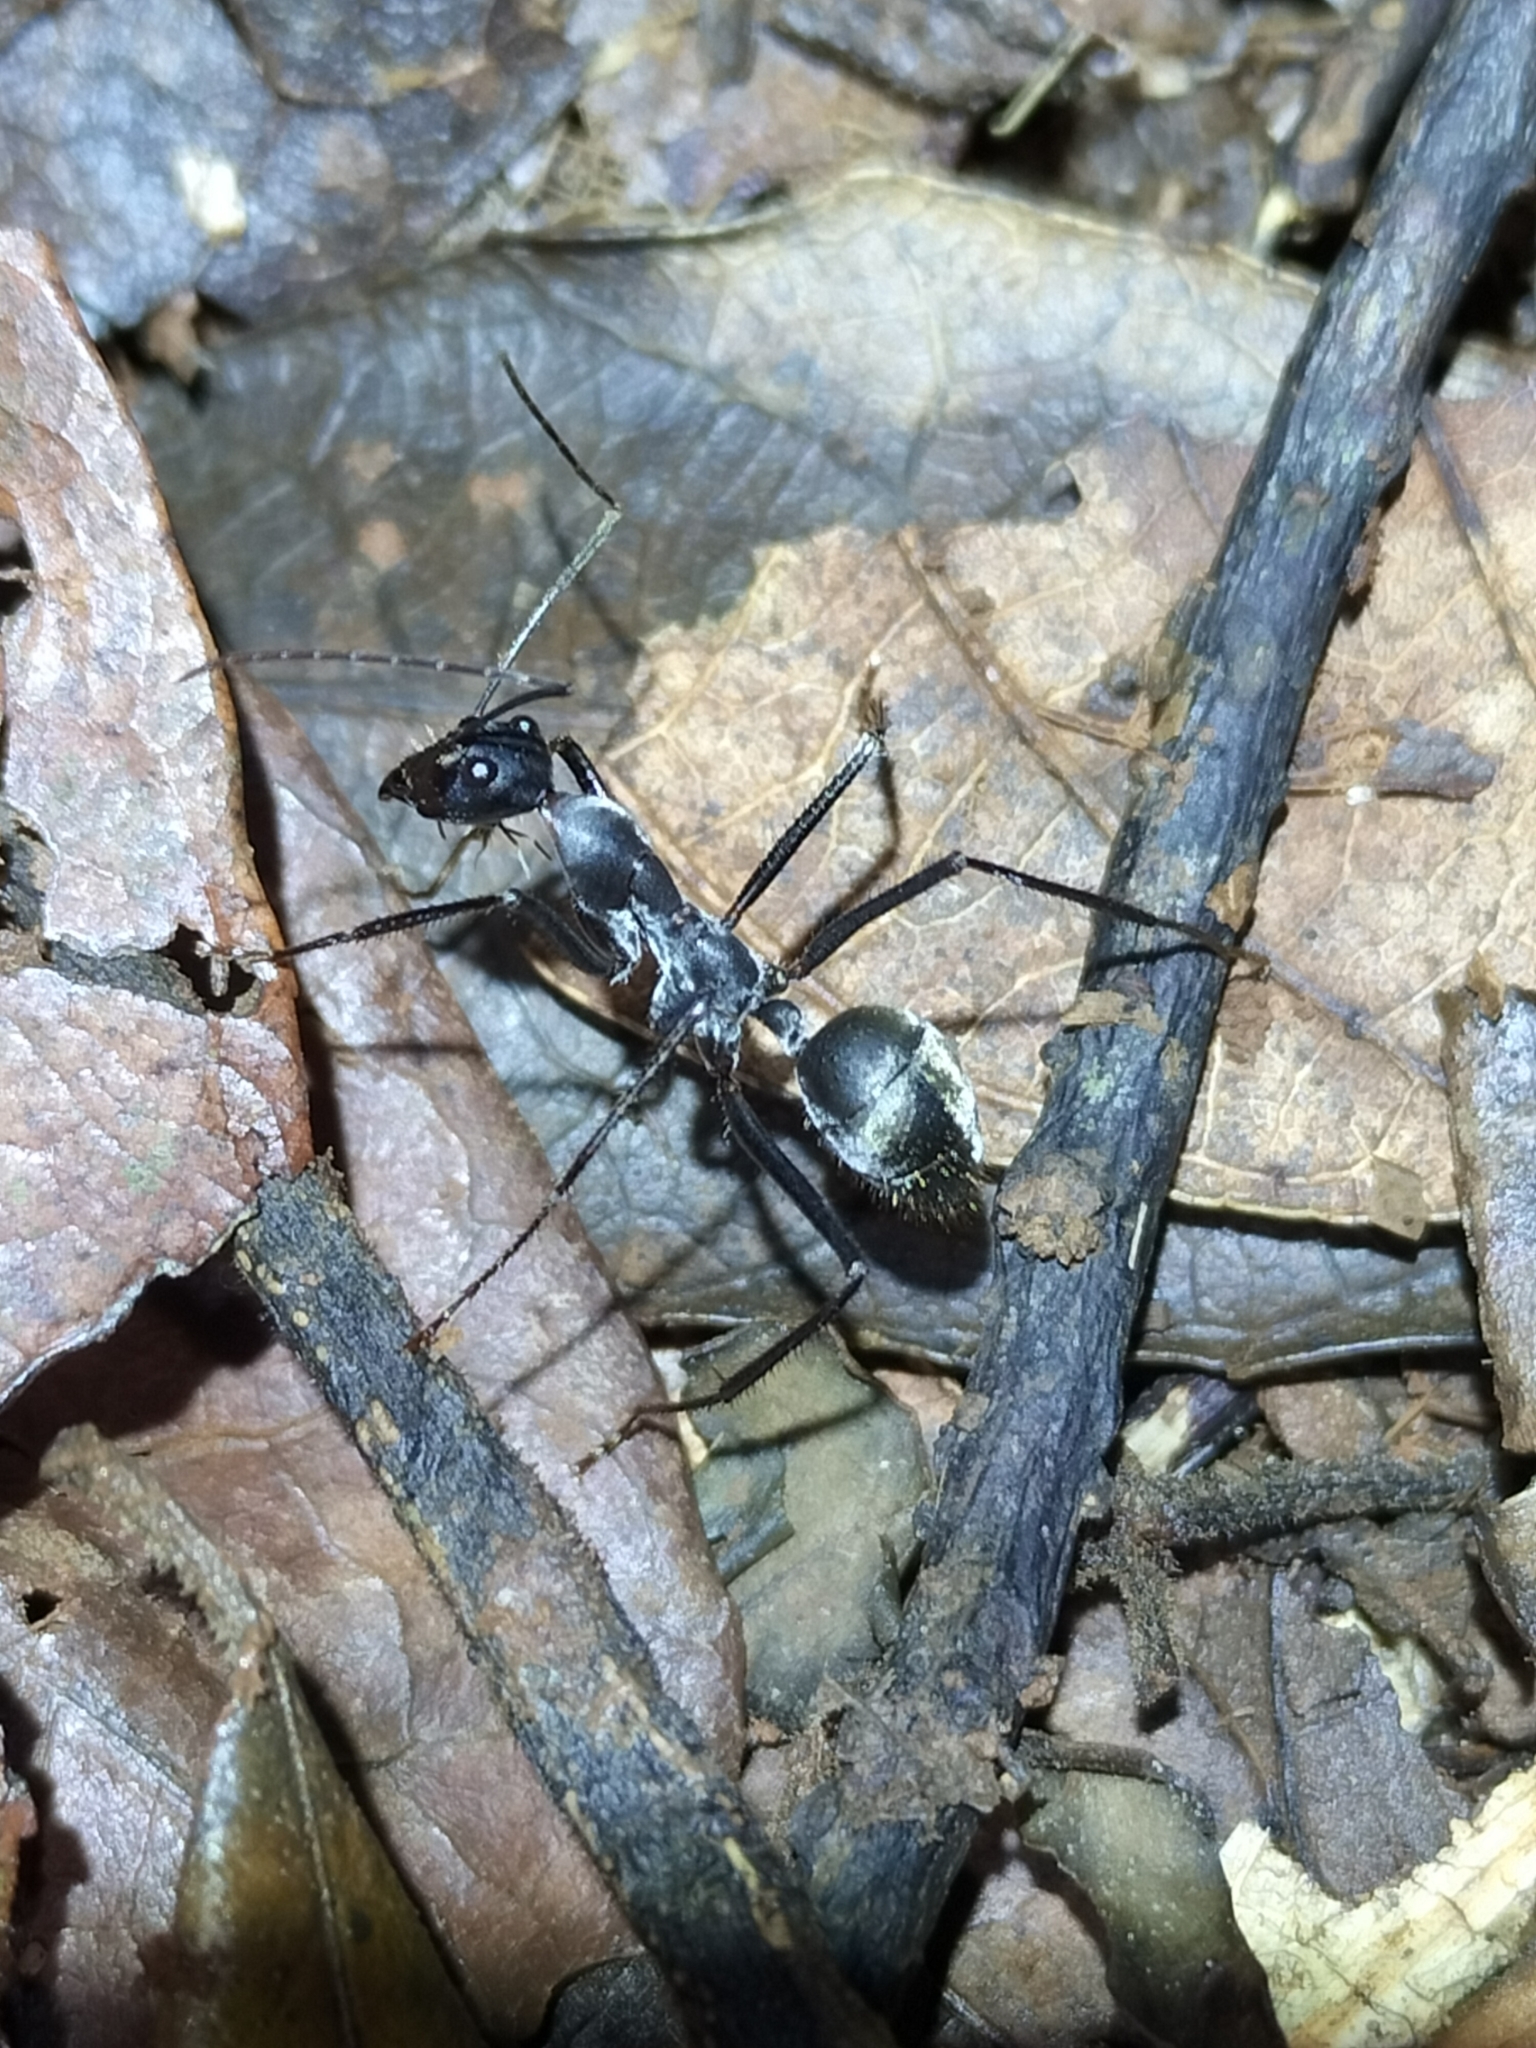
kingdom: Animalia
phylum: Arthropoda
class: Insecta
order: Hymenoptera
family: Formicidae
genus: Notostigma
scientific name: Notostigma carazzii
